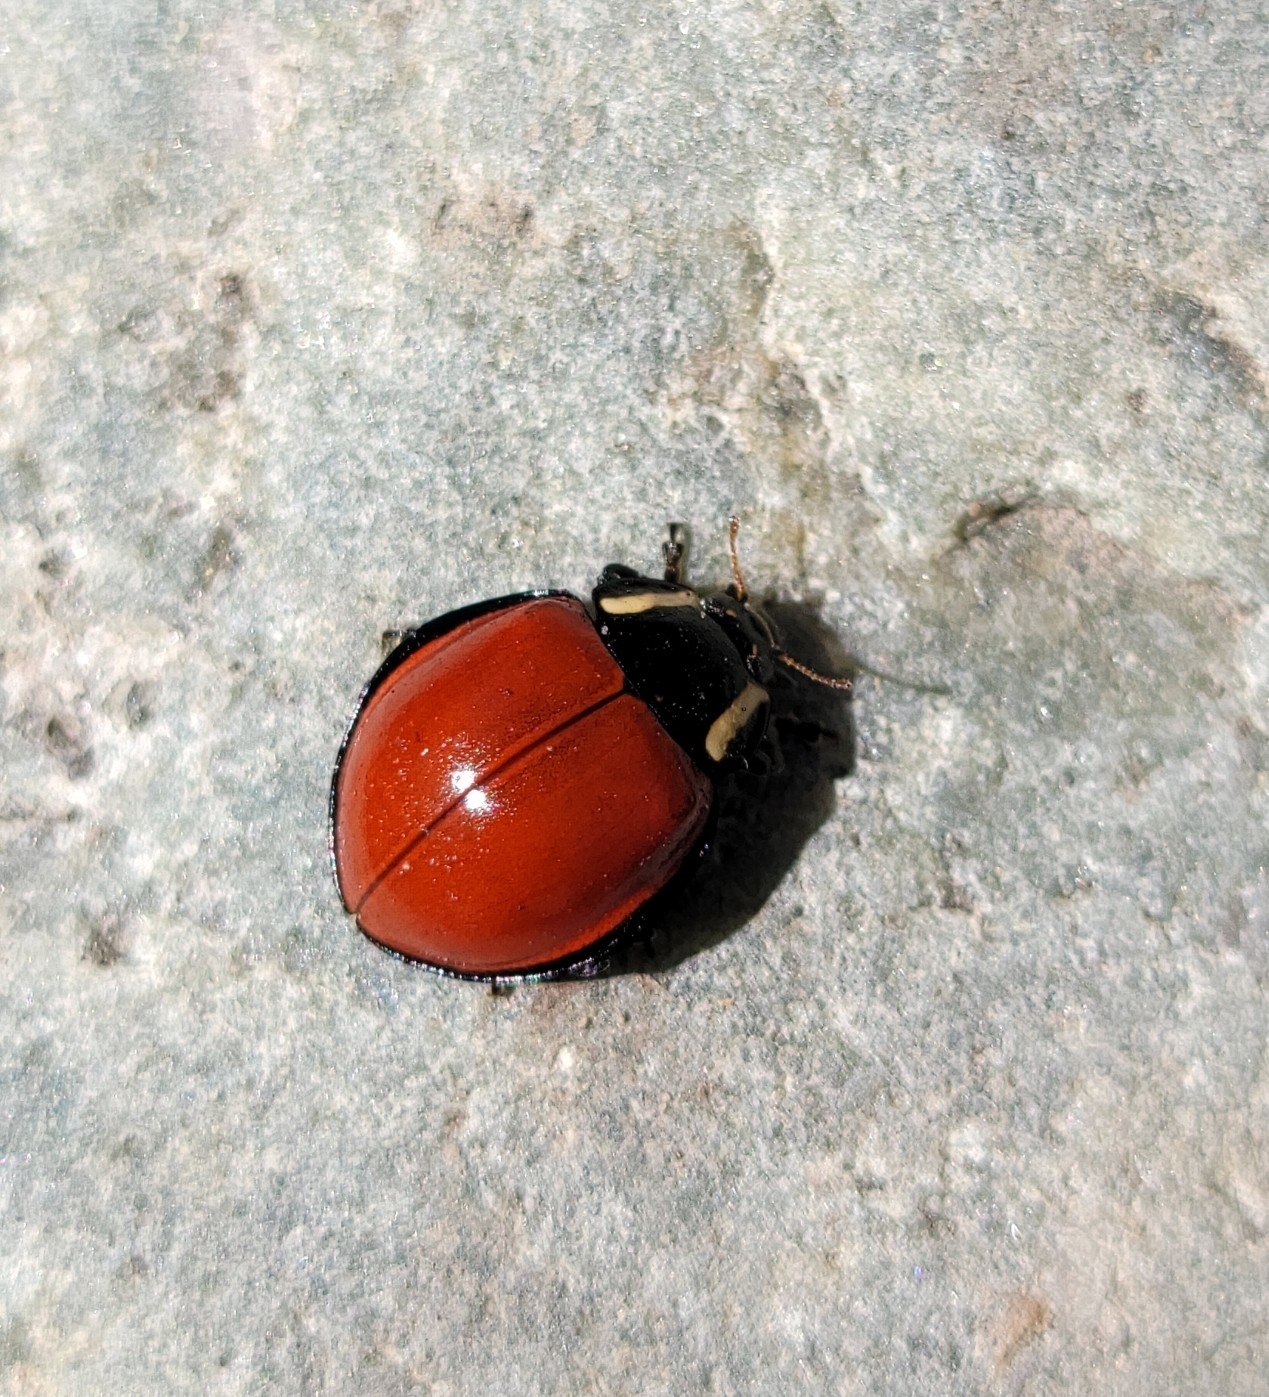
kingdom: Animalia
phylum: Arthropoda
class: Insecta
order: Coleoptera
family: Coccinellidae
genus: Anatis
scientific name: Anatis lecontei
